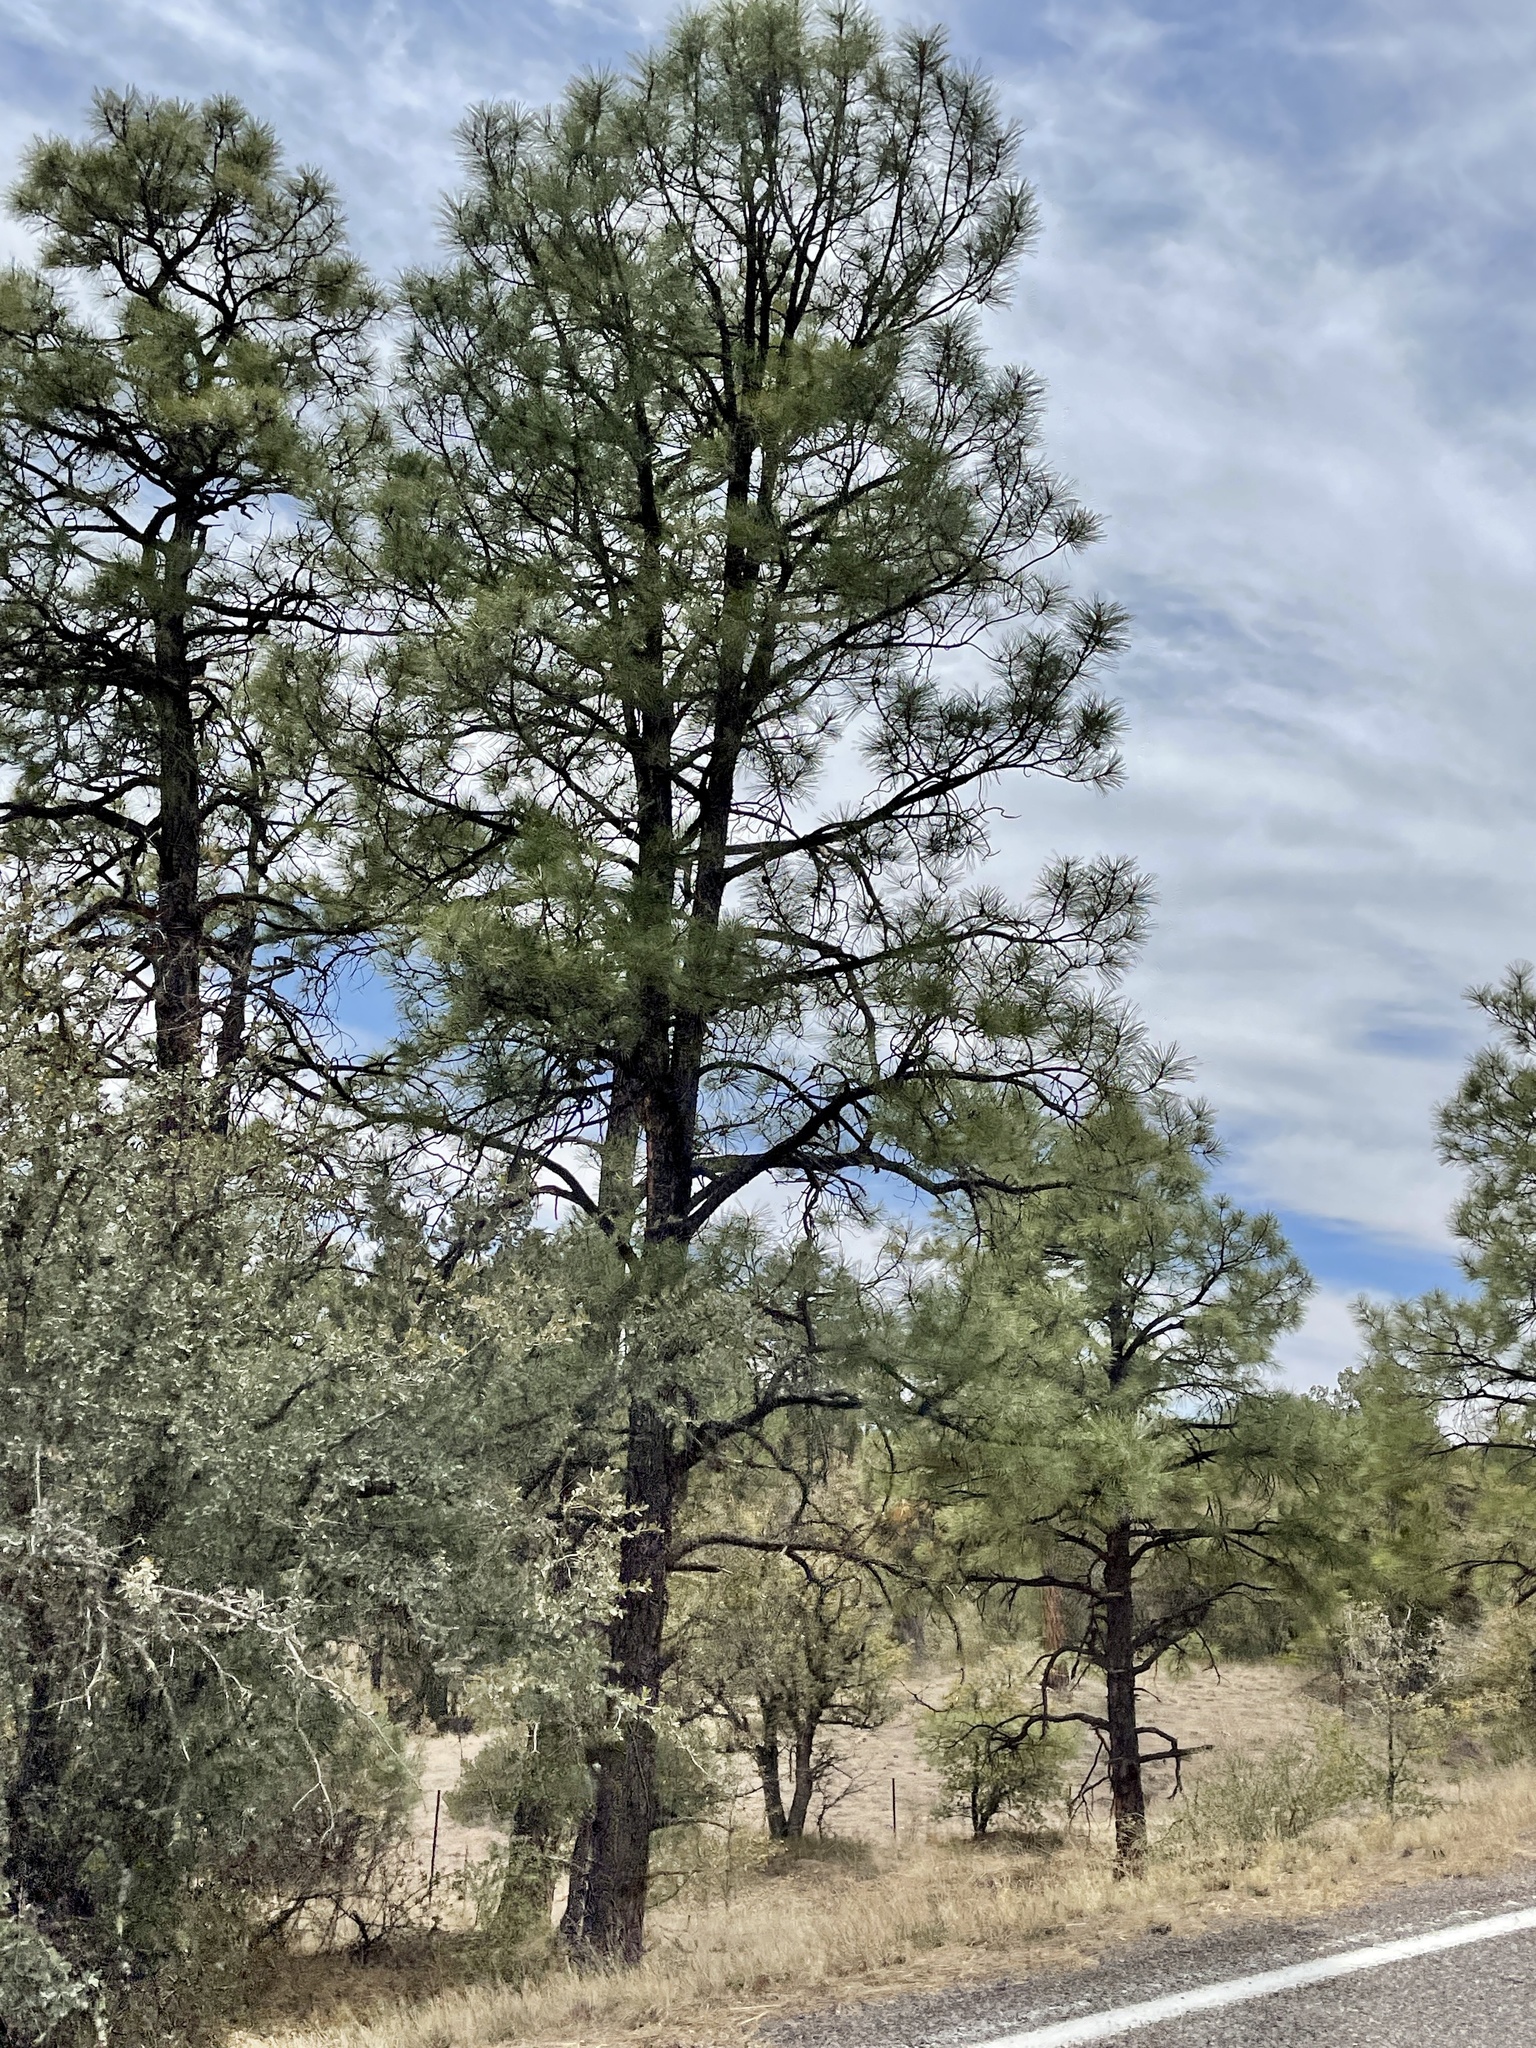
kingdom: Plantae
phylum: Tracheophyta
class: Pinopsida
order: Pinales
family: Pinaceae
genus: Pinus
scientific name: Pinus ponderosa
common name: Western yellow-pine
